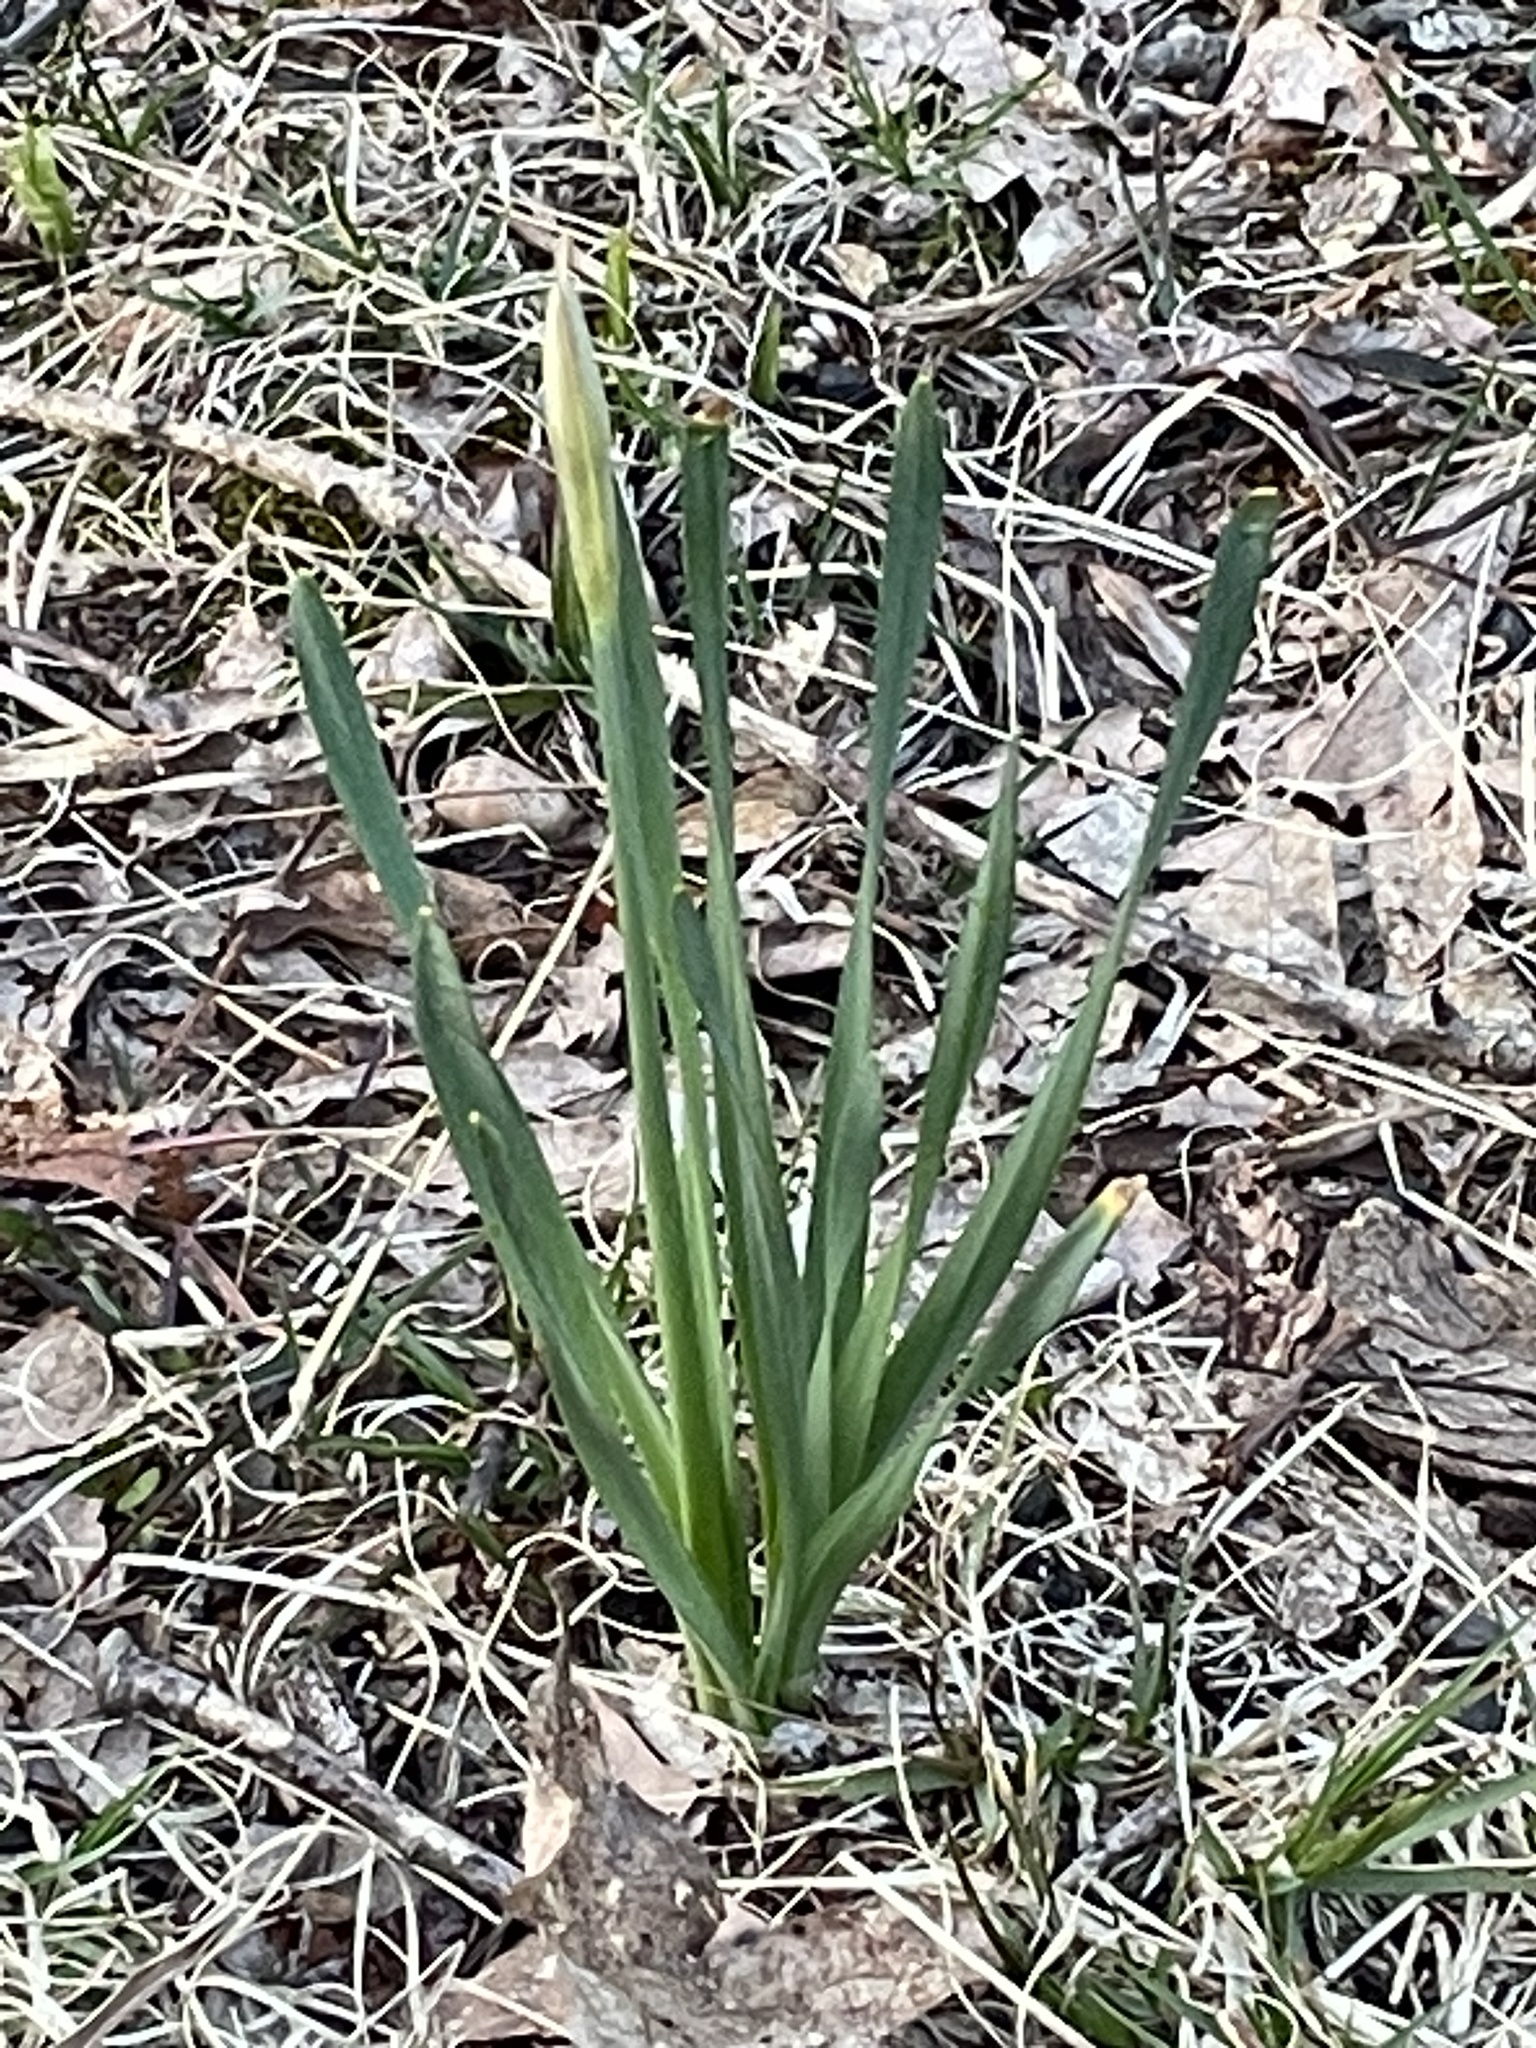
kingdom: Plantae
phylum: Tracheophyta
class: Liliopsida
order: Asparagales
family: Amaryllidaceae
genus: Narcissus
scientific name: Narcissus
